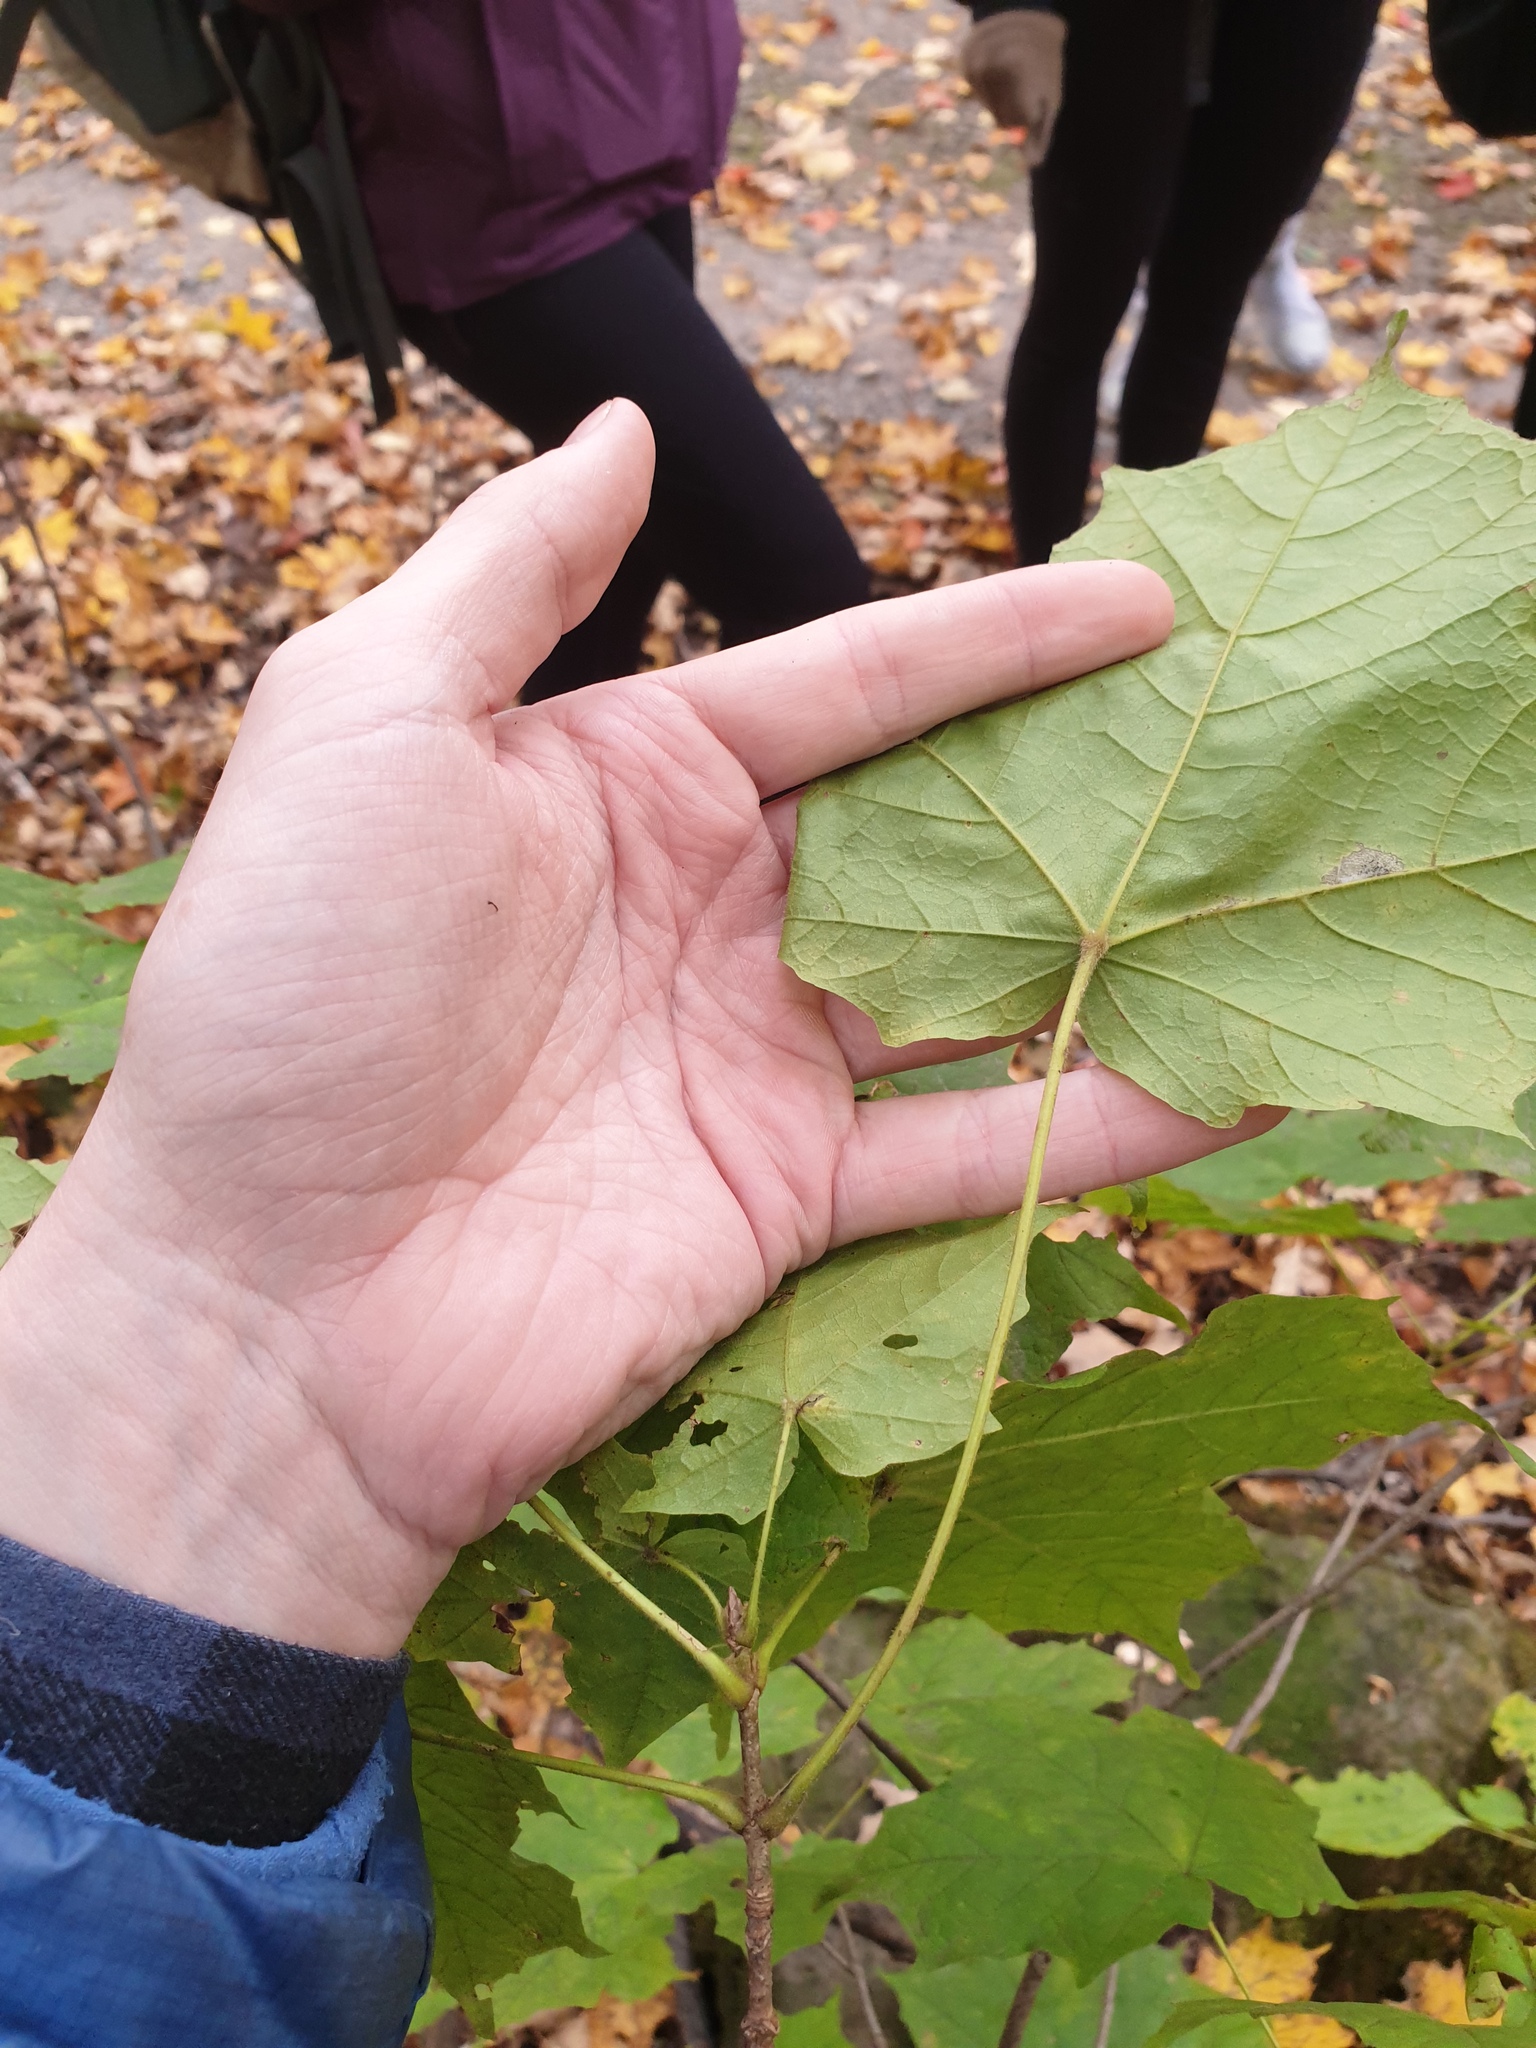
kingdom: Plantae
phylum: Tracheophyta
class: Magnoliopsida
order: Sapindales
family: Sapindaceae
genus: Acer
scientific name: Acer nigrum
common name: Black maple
